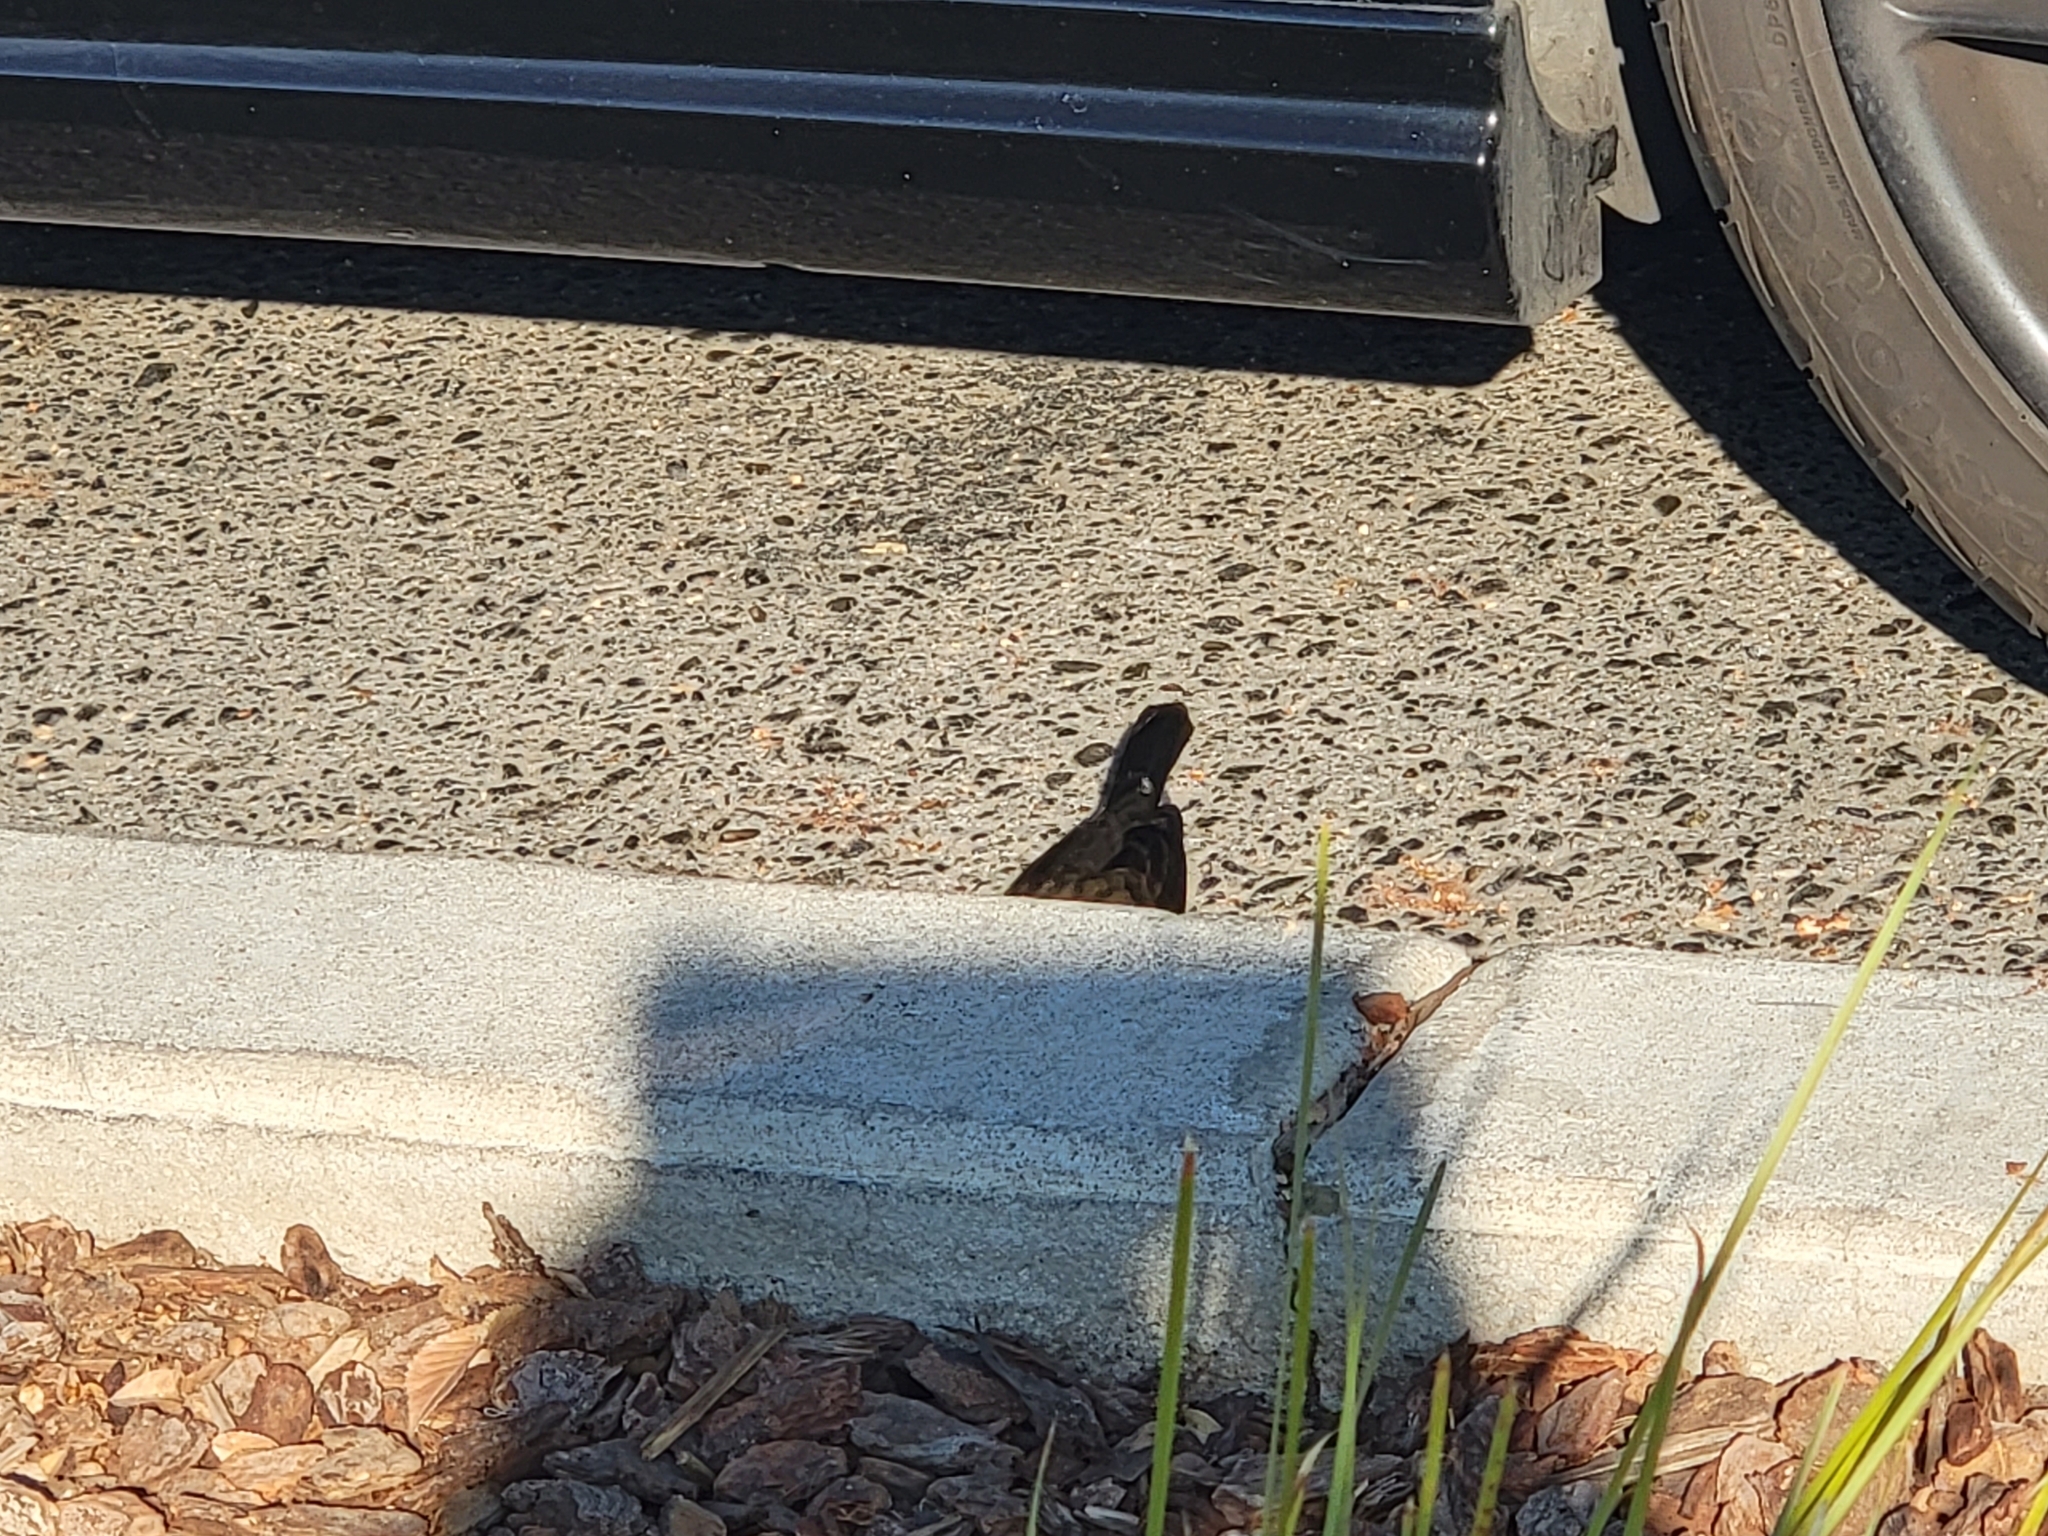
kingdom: Animalia
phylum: Chordata
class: Aves
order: Passeriformes
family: Icteridae
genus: Euphagus
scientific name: Euphagus cyanocephalus
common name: Brewer's blackbird
